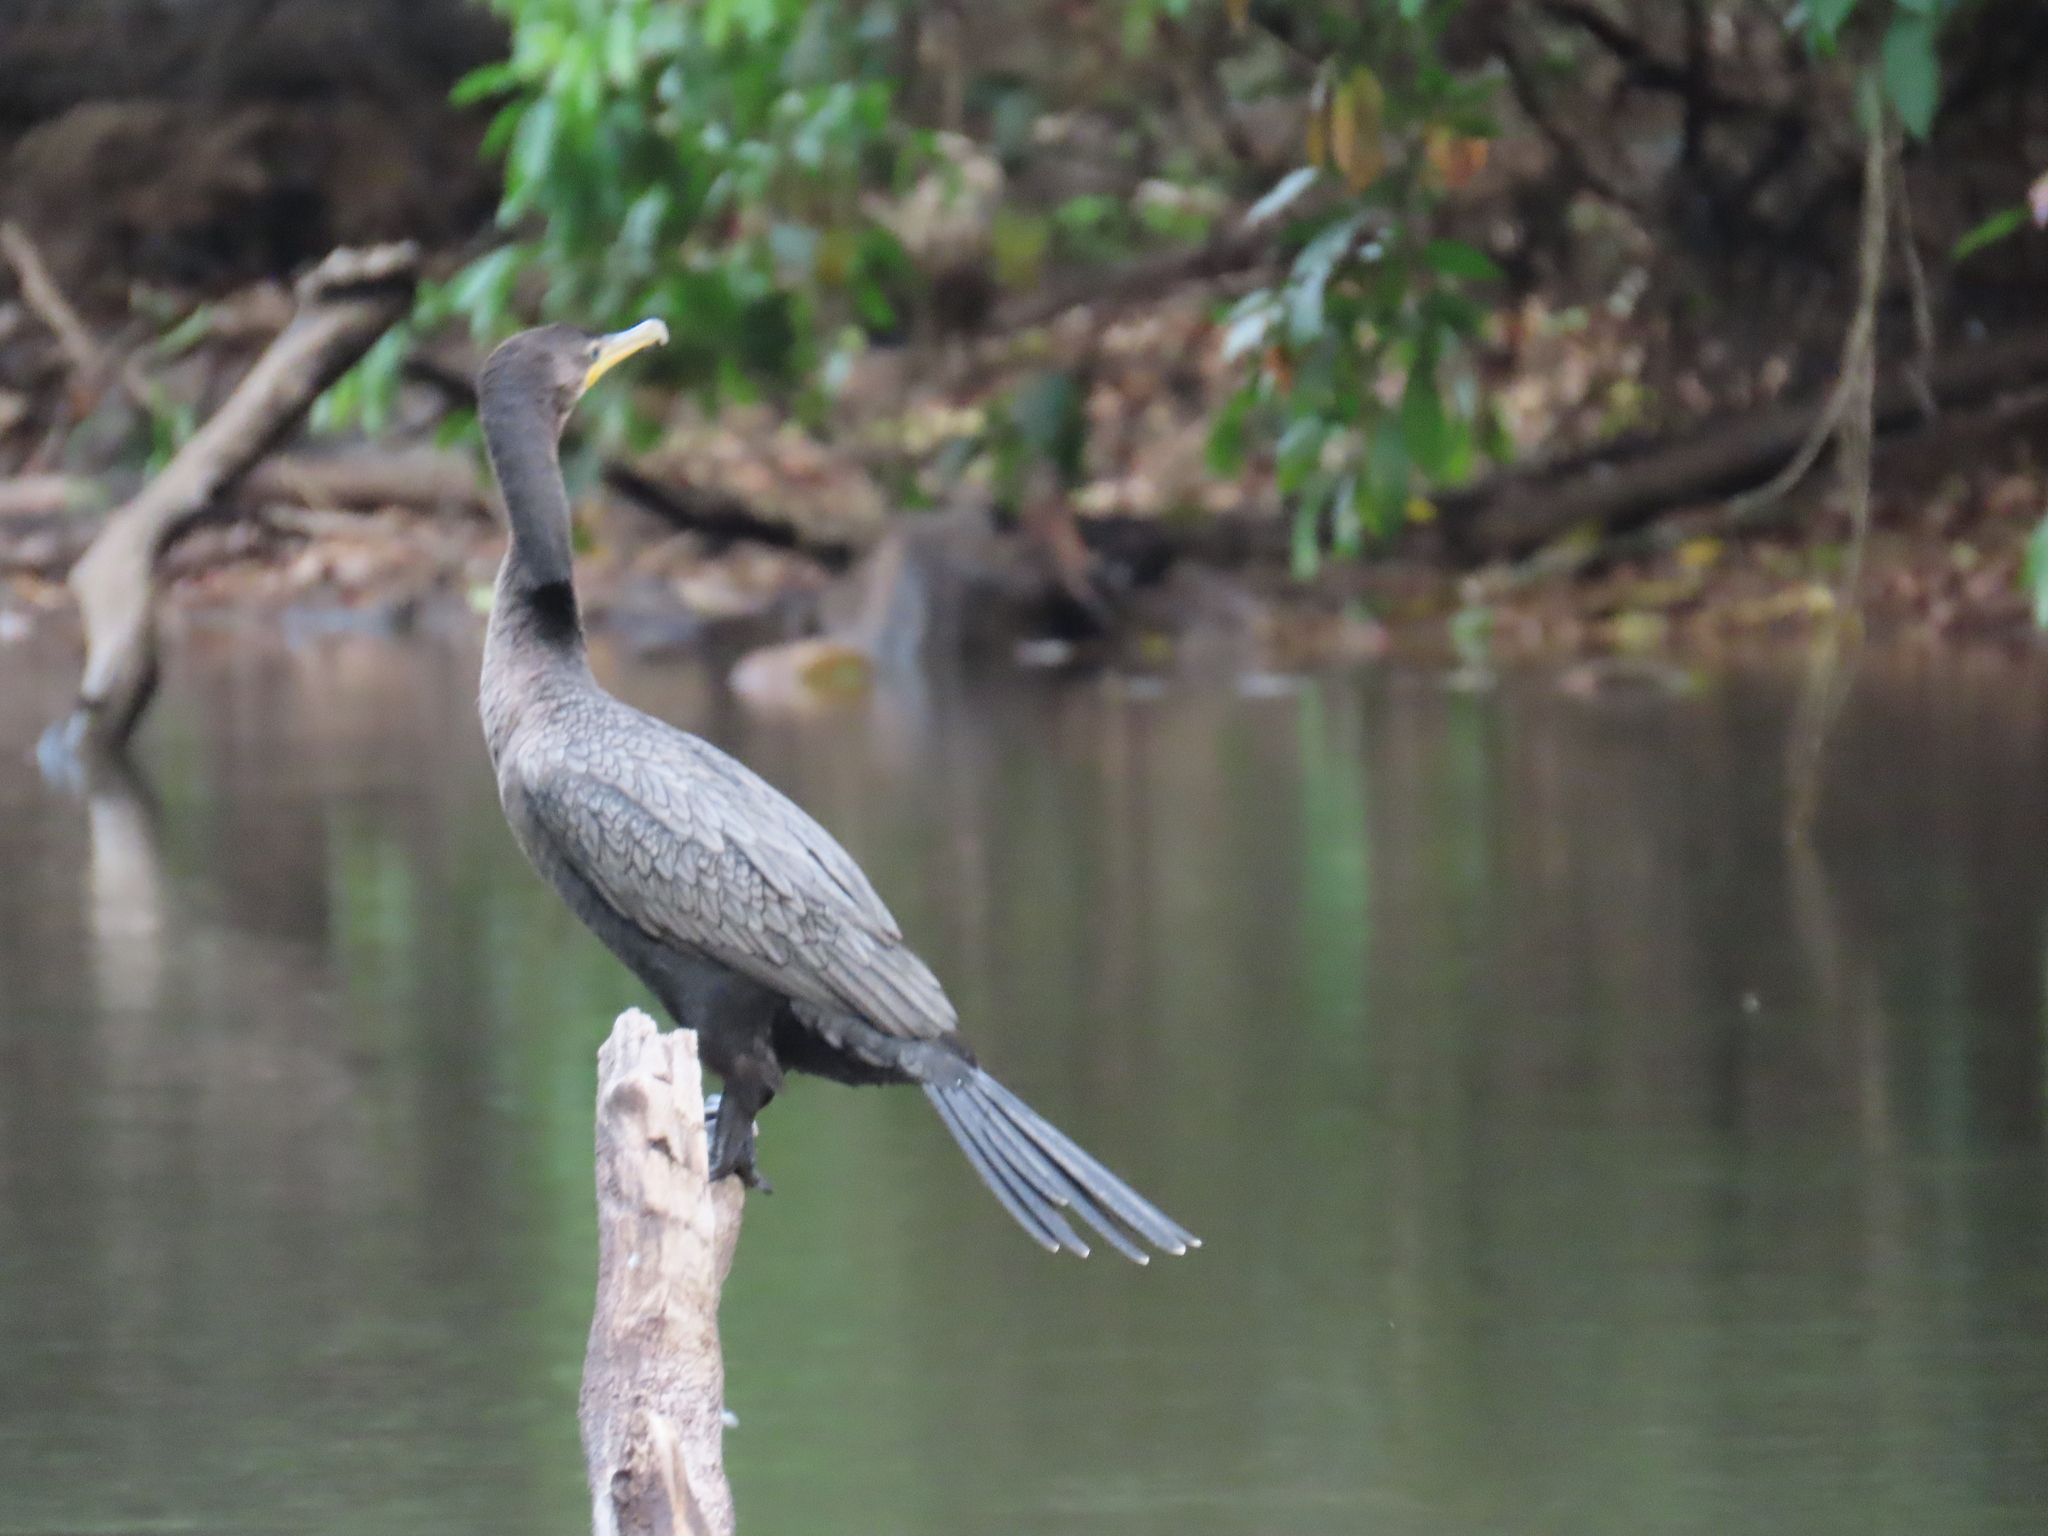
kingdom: Animalia
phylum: Chordata
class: Aves
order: Suliformes
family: Phalacrocoracidae
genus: Phalacrocorax
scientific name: Phalacrocorax brasilianus
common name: Neotropic cormorant
